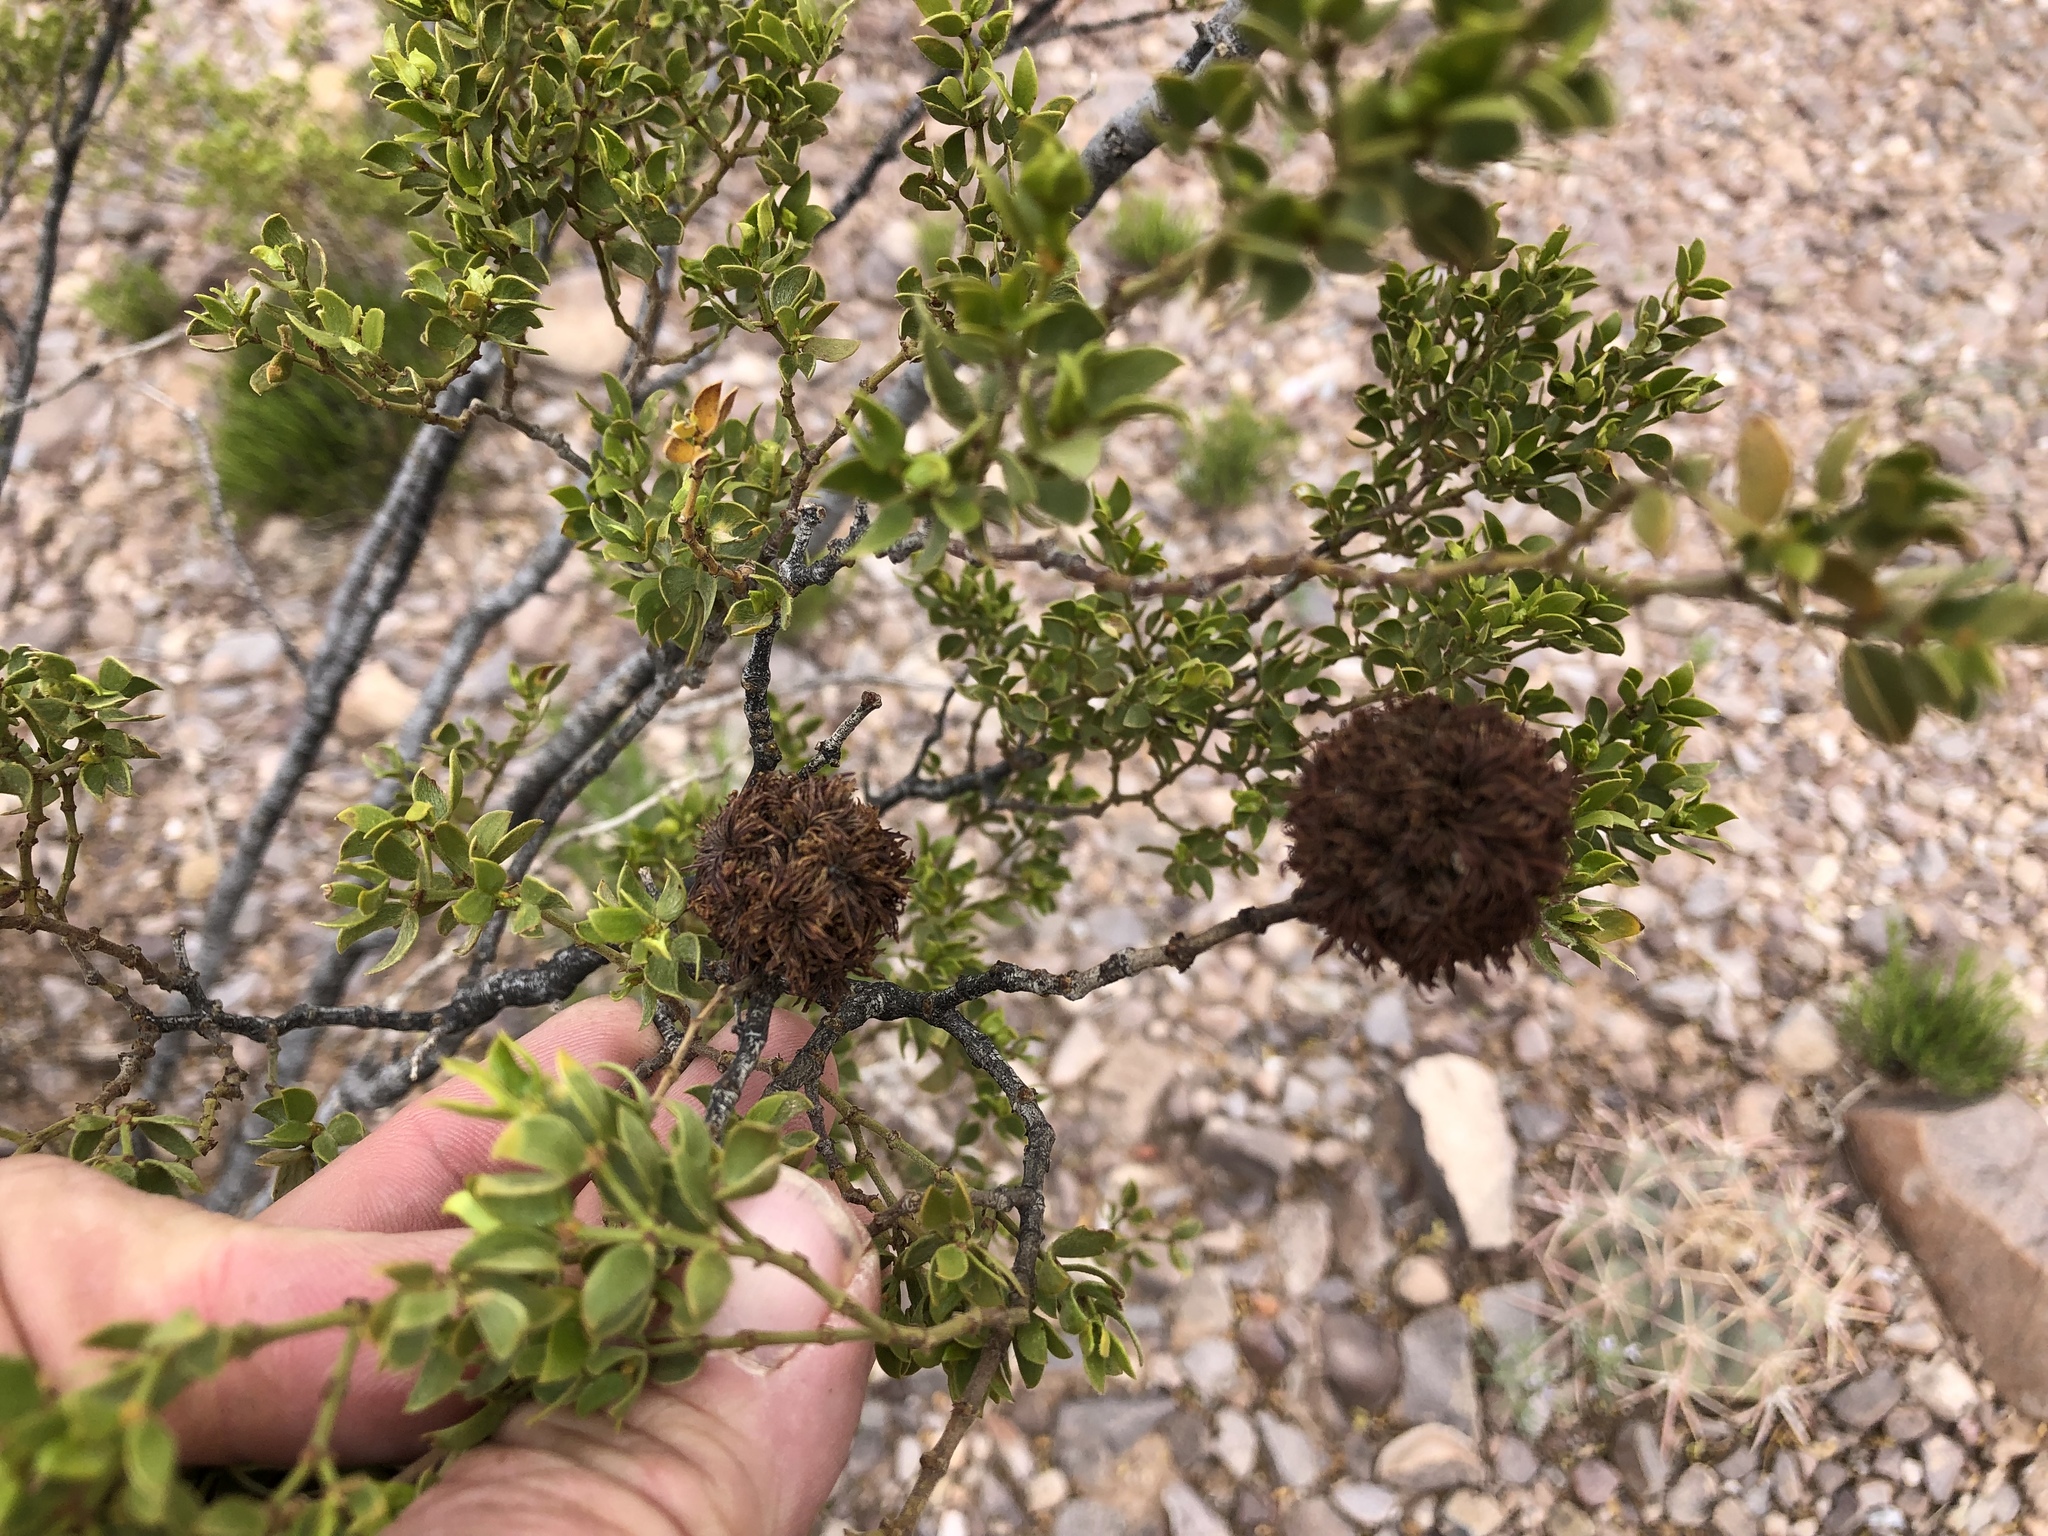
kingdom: Animalia
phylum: Arthropoda
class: Insecta
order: Diptera
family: Cecidomyiidae
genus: Asphondylia
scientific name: Asphondylia auripila
